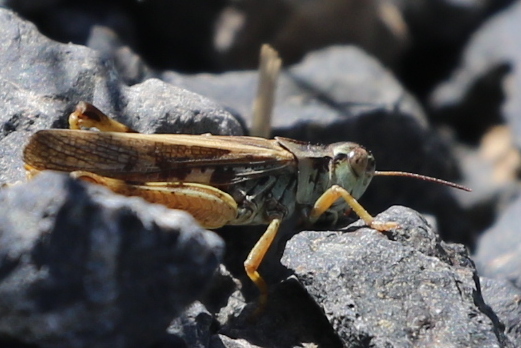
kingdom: Animalia
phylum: Arthropoda
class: Insecta
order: Orthoptera
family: Acrididae
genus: Camnula
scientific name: Camnula pellucida
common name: Clear-winged grasshopper
